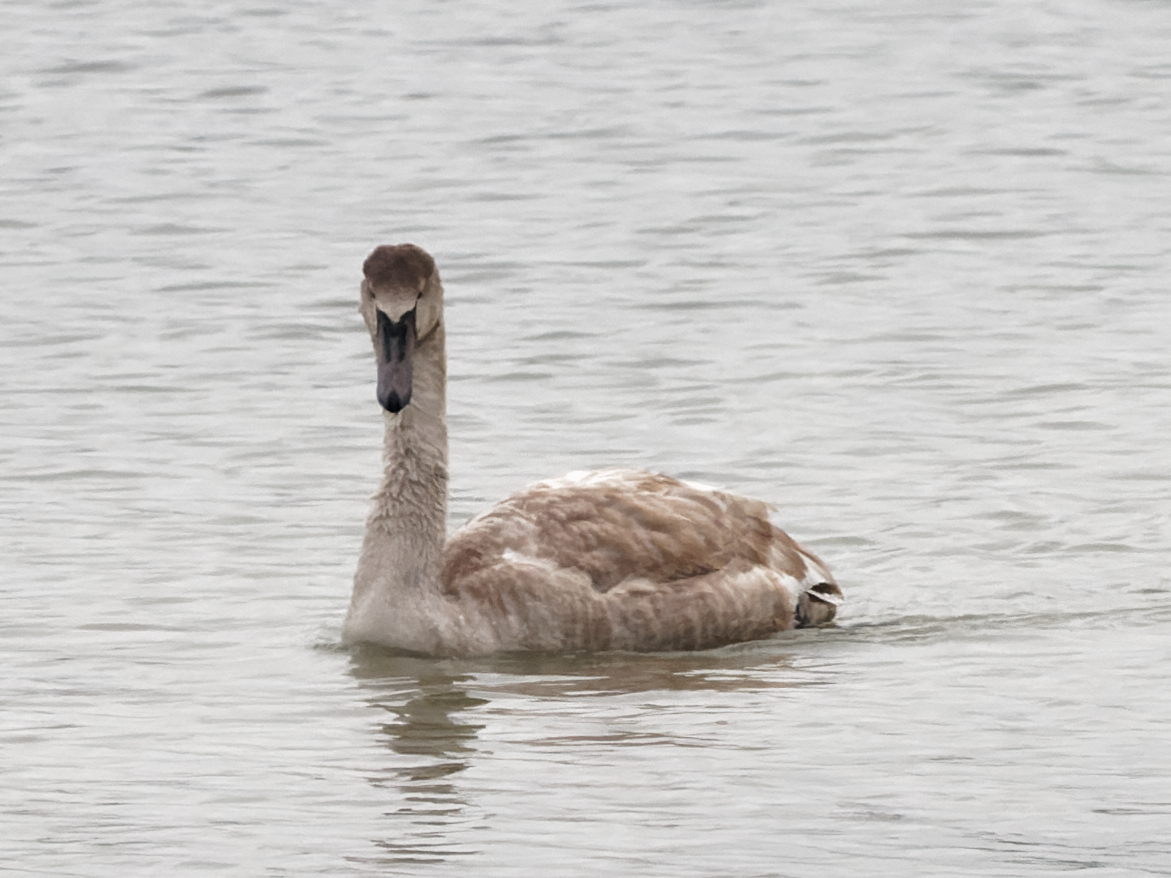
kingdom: Animalia
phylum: Chordata
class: Aves
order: Anseriformes
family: Anatidae
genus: Cygnus
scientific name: Cygnus olor
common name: Mute swan
